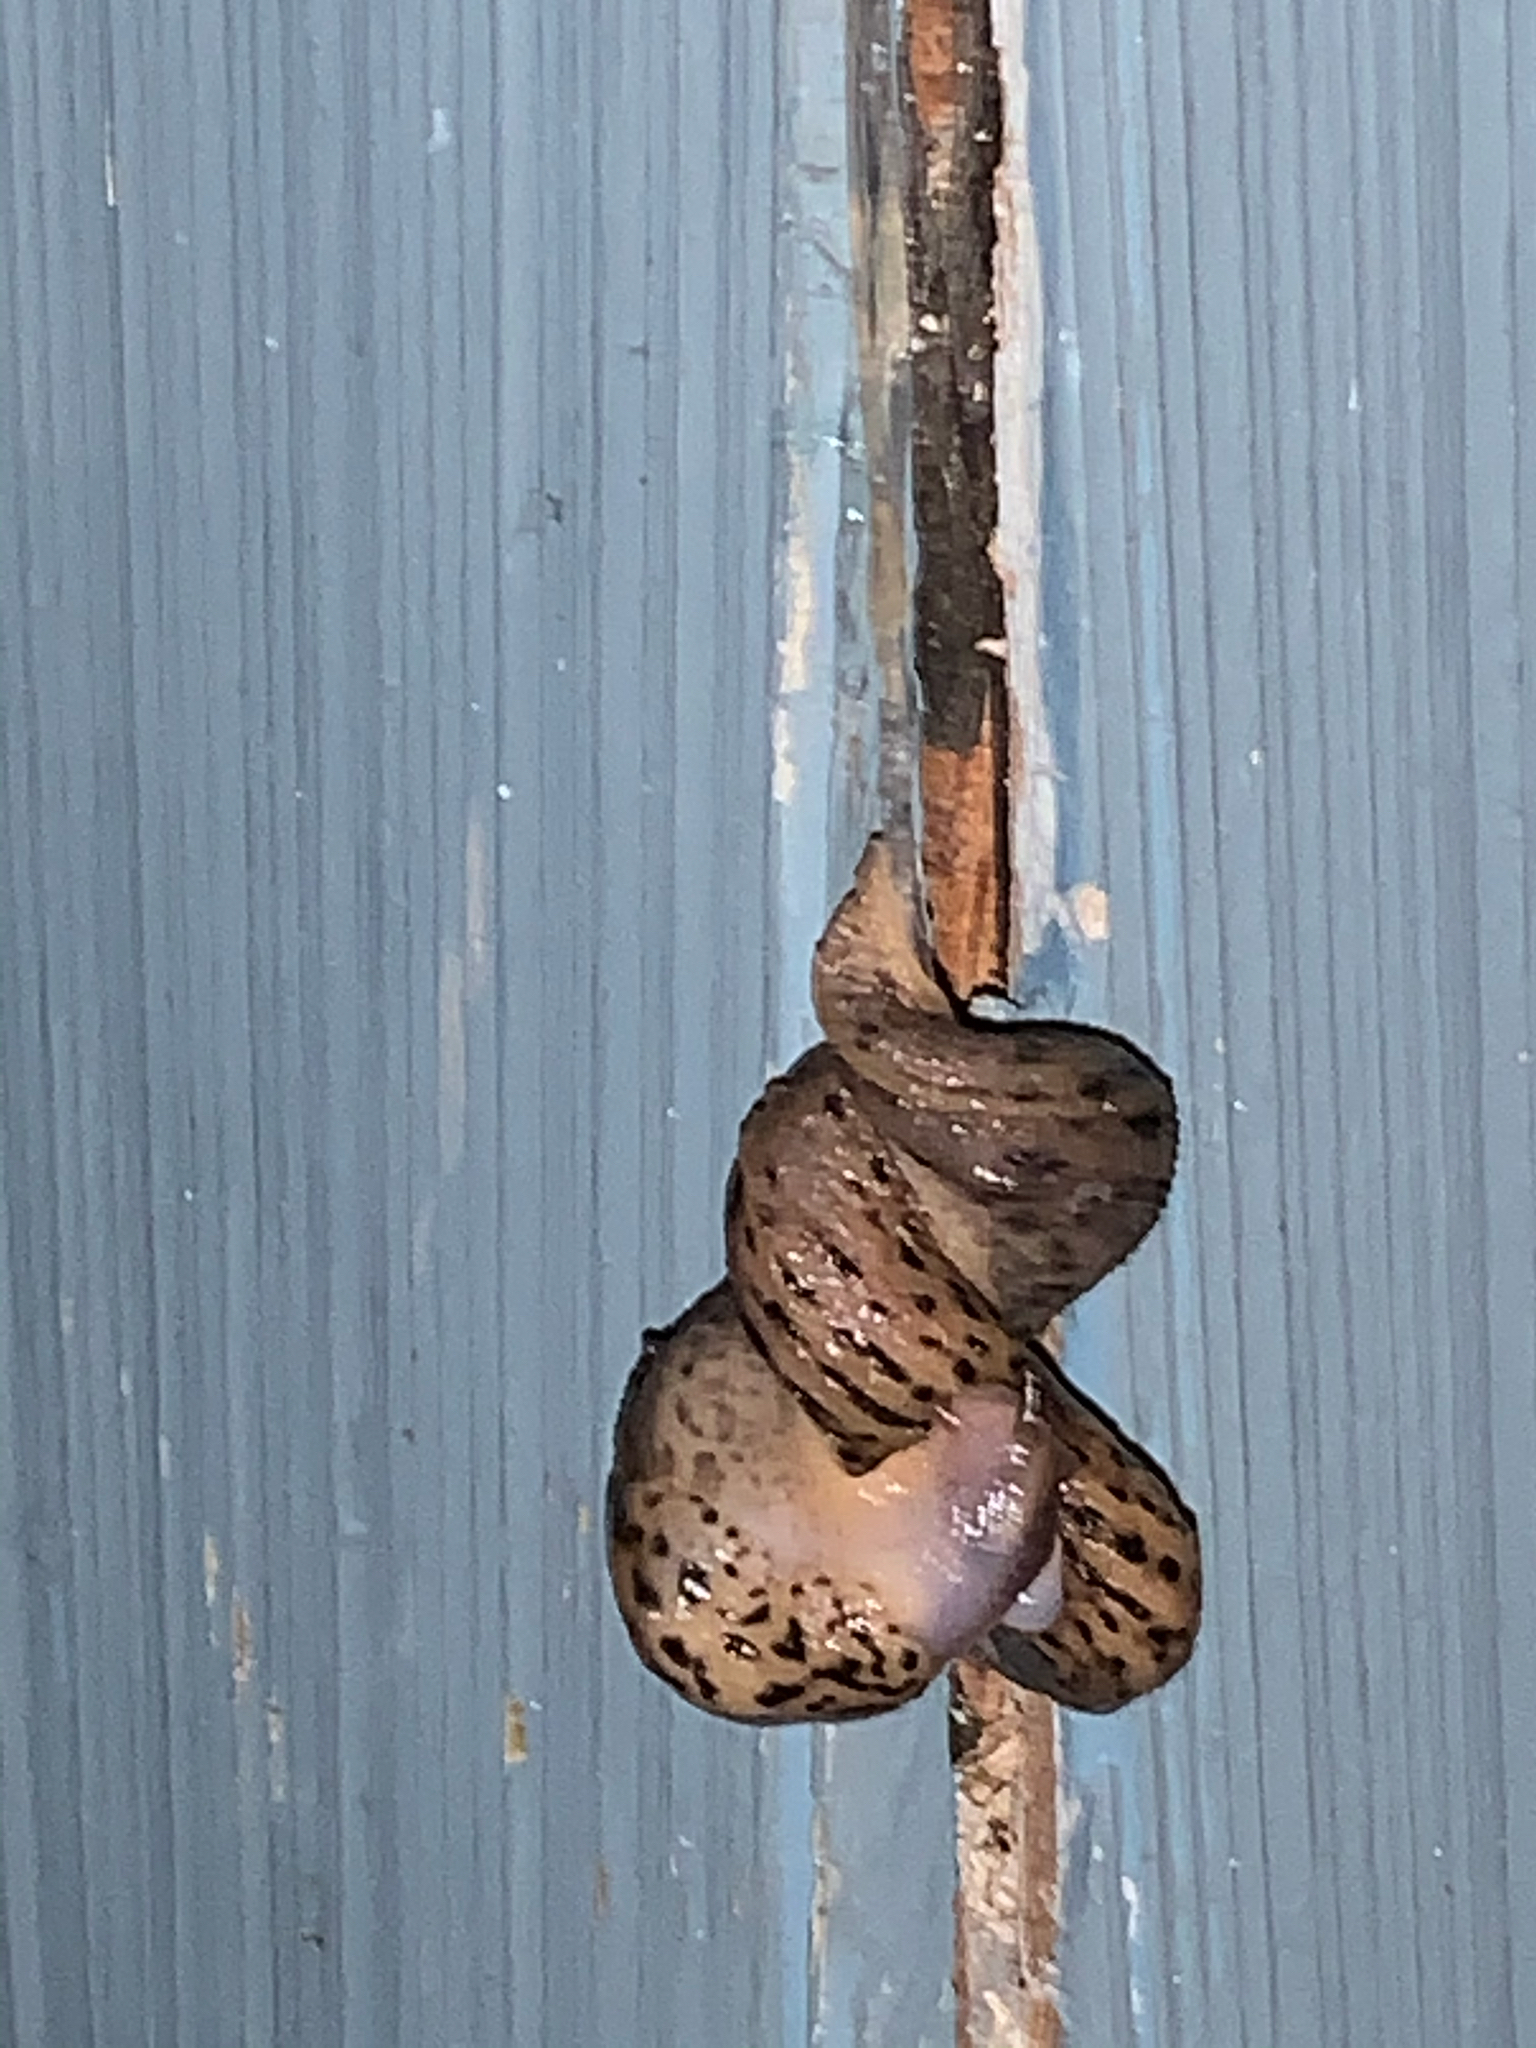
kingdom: Animalia
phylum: Mollusca
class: Gastropoda
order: Stylommatophora
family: Limacidae
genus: Limax
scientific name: Limax maximus
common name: Great grey slug
